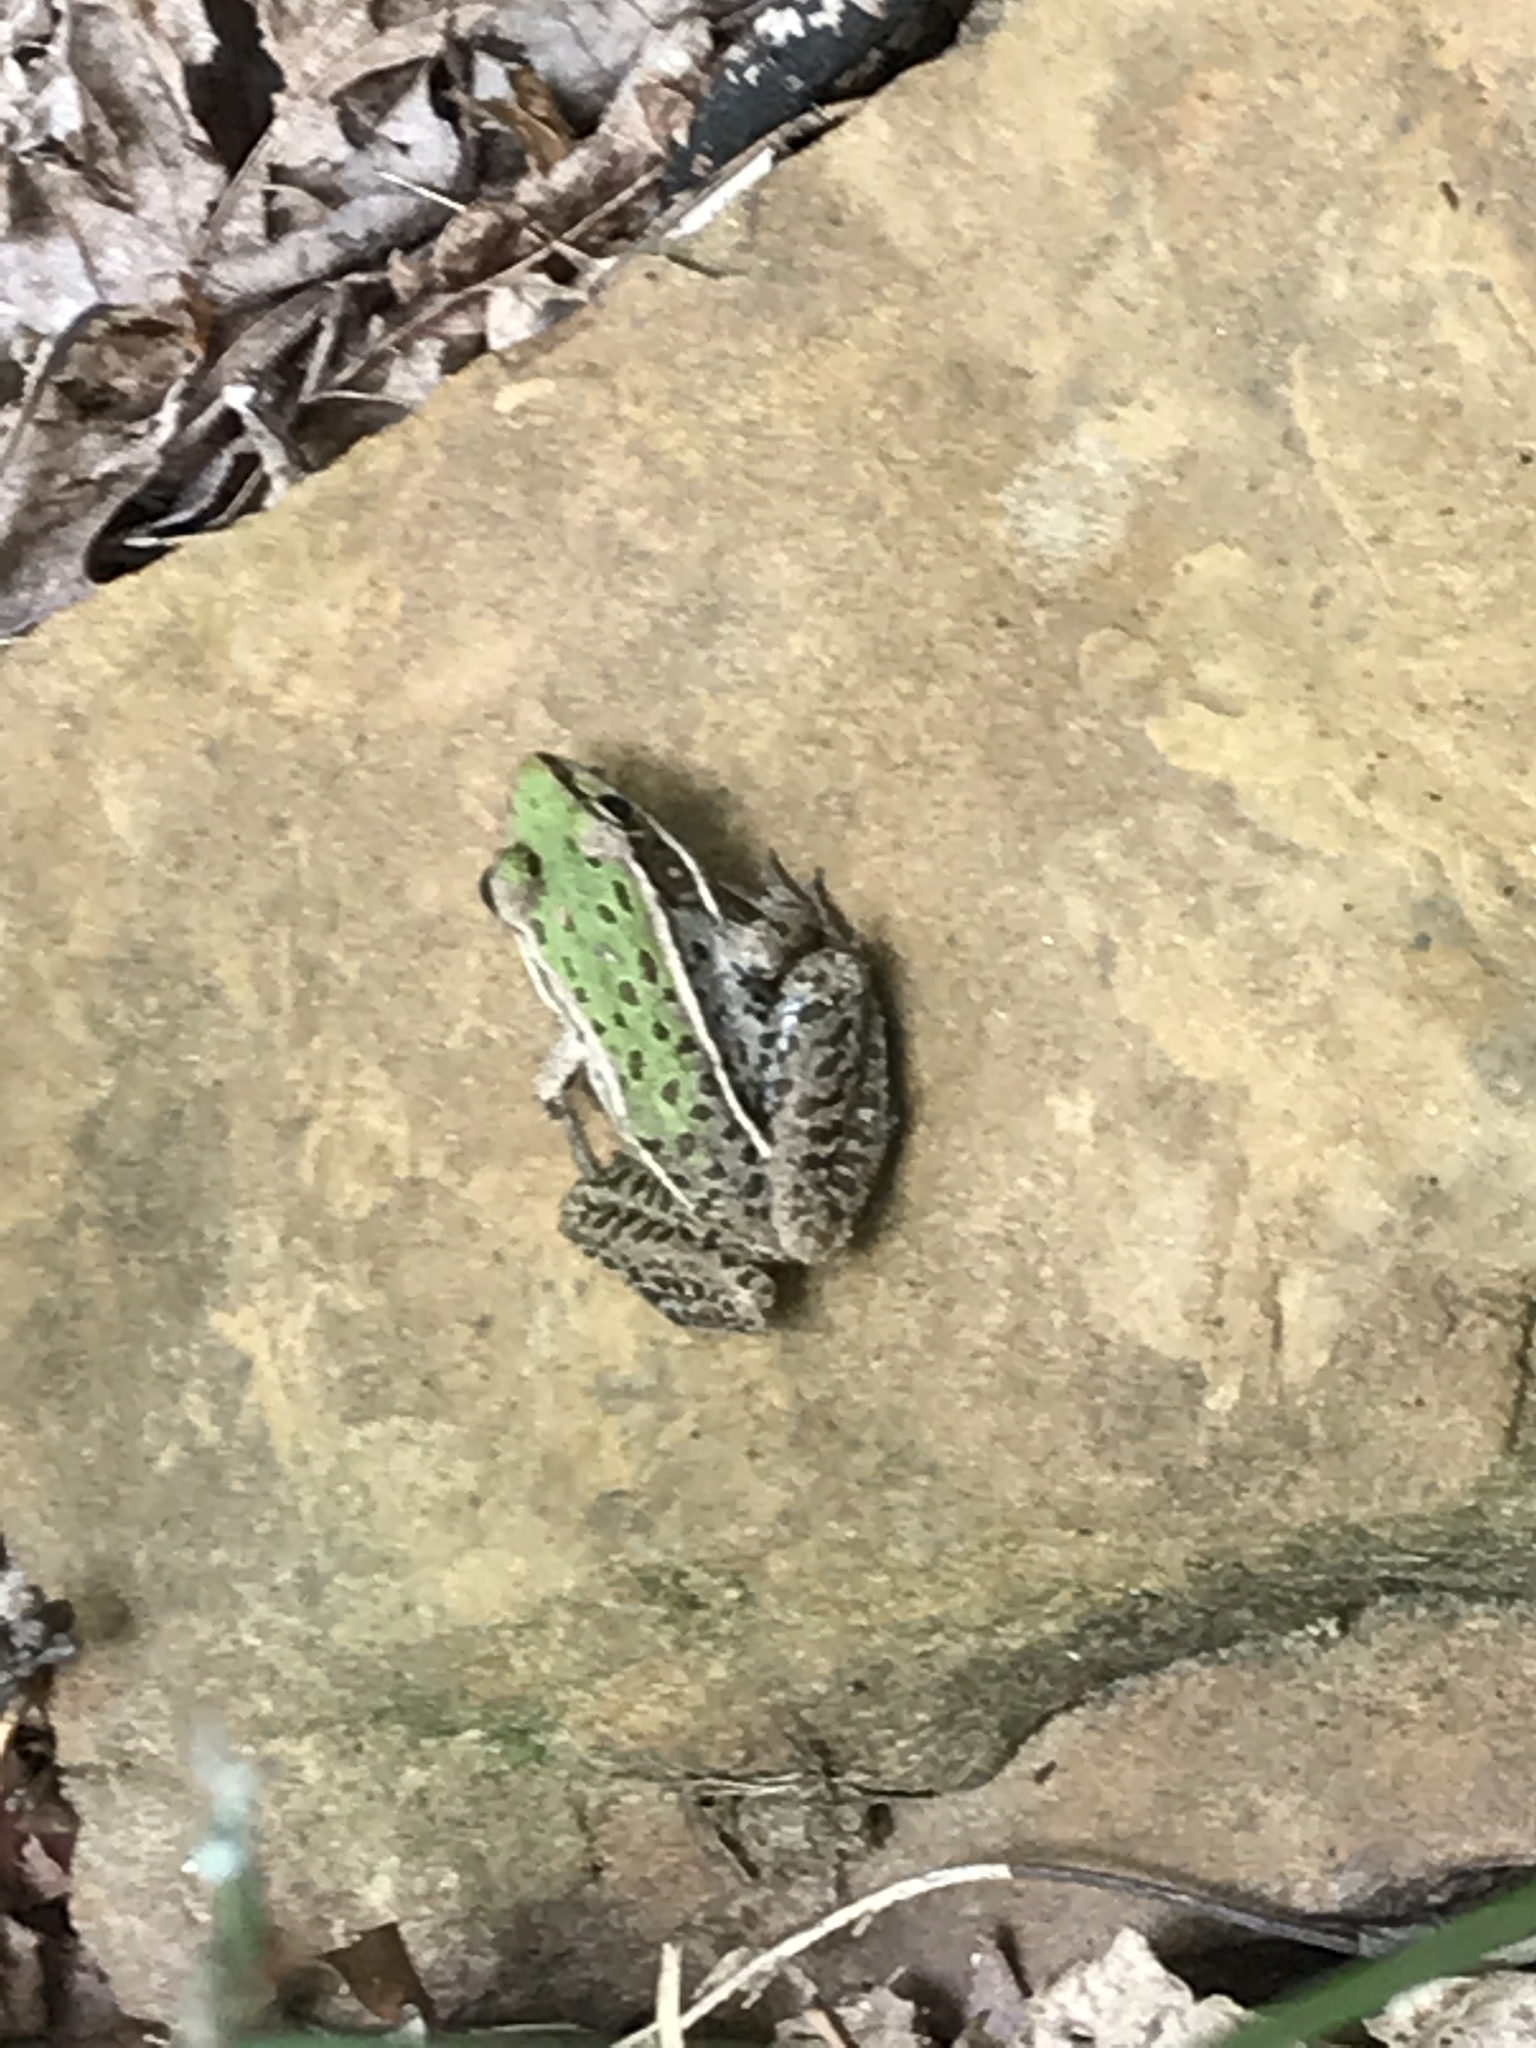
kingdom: Animalia
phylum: Chordata
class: Amphibia
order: Anura
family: Ranidae
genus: Lithobates
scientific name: Lithobates sphenocephalus
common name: Southern leopard frog
